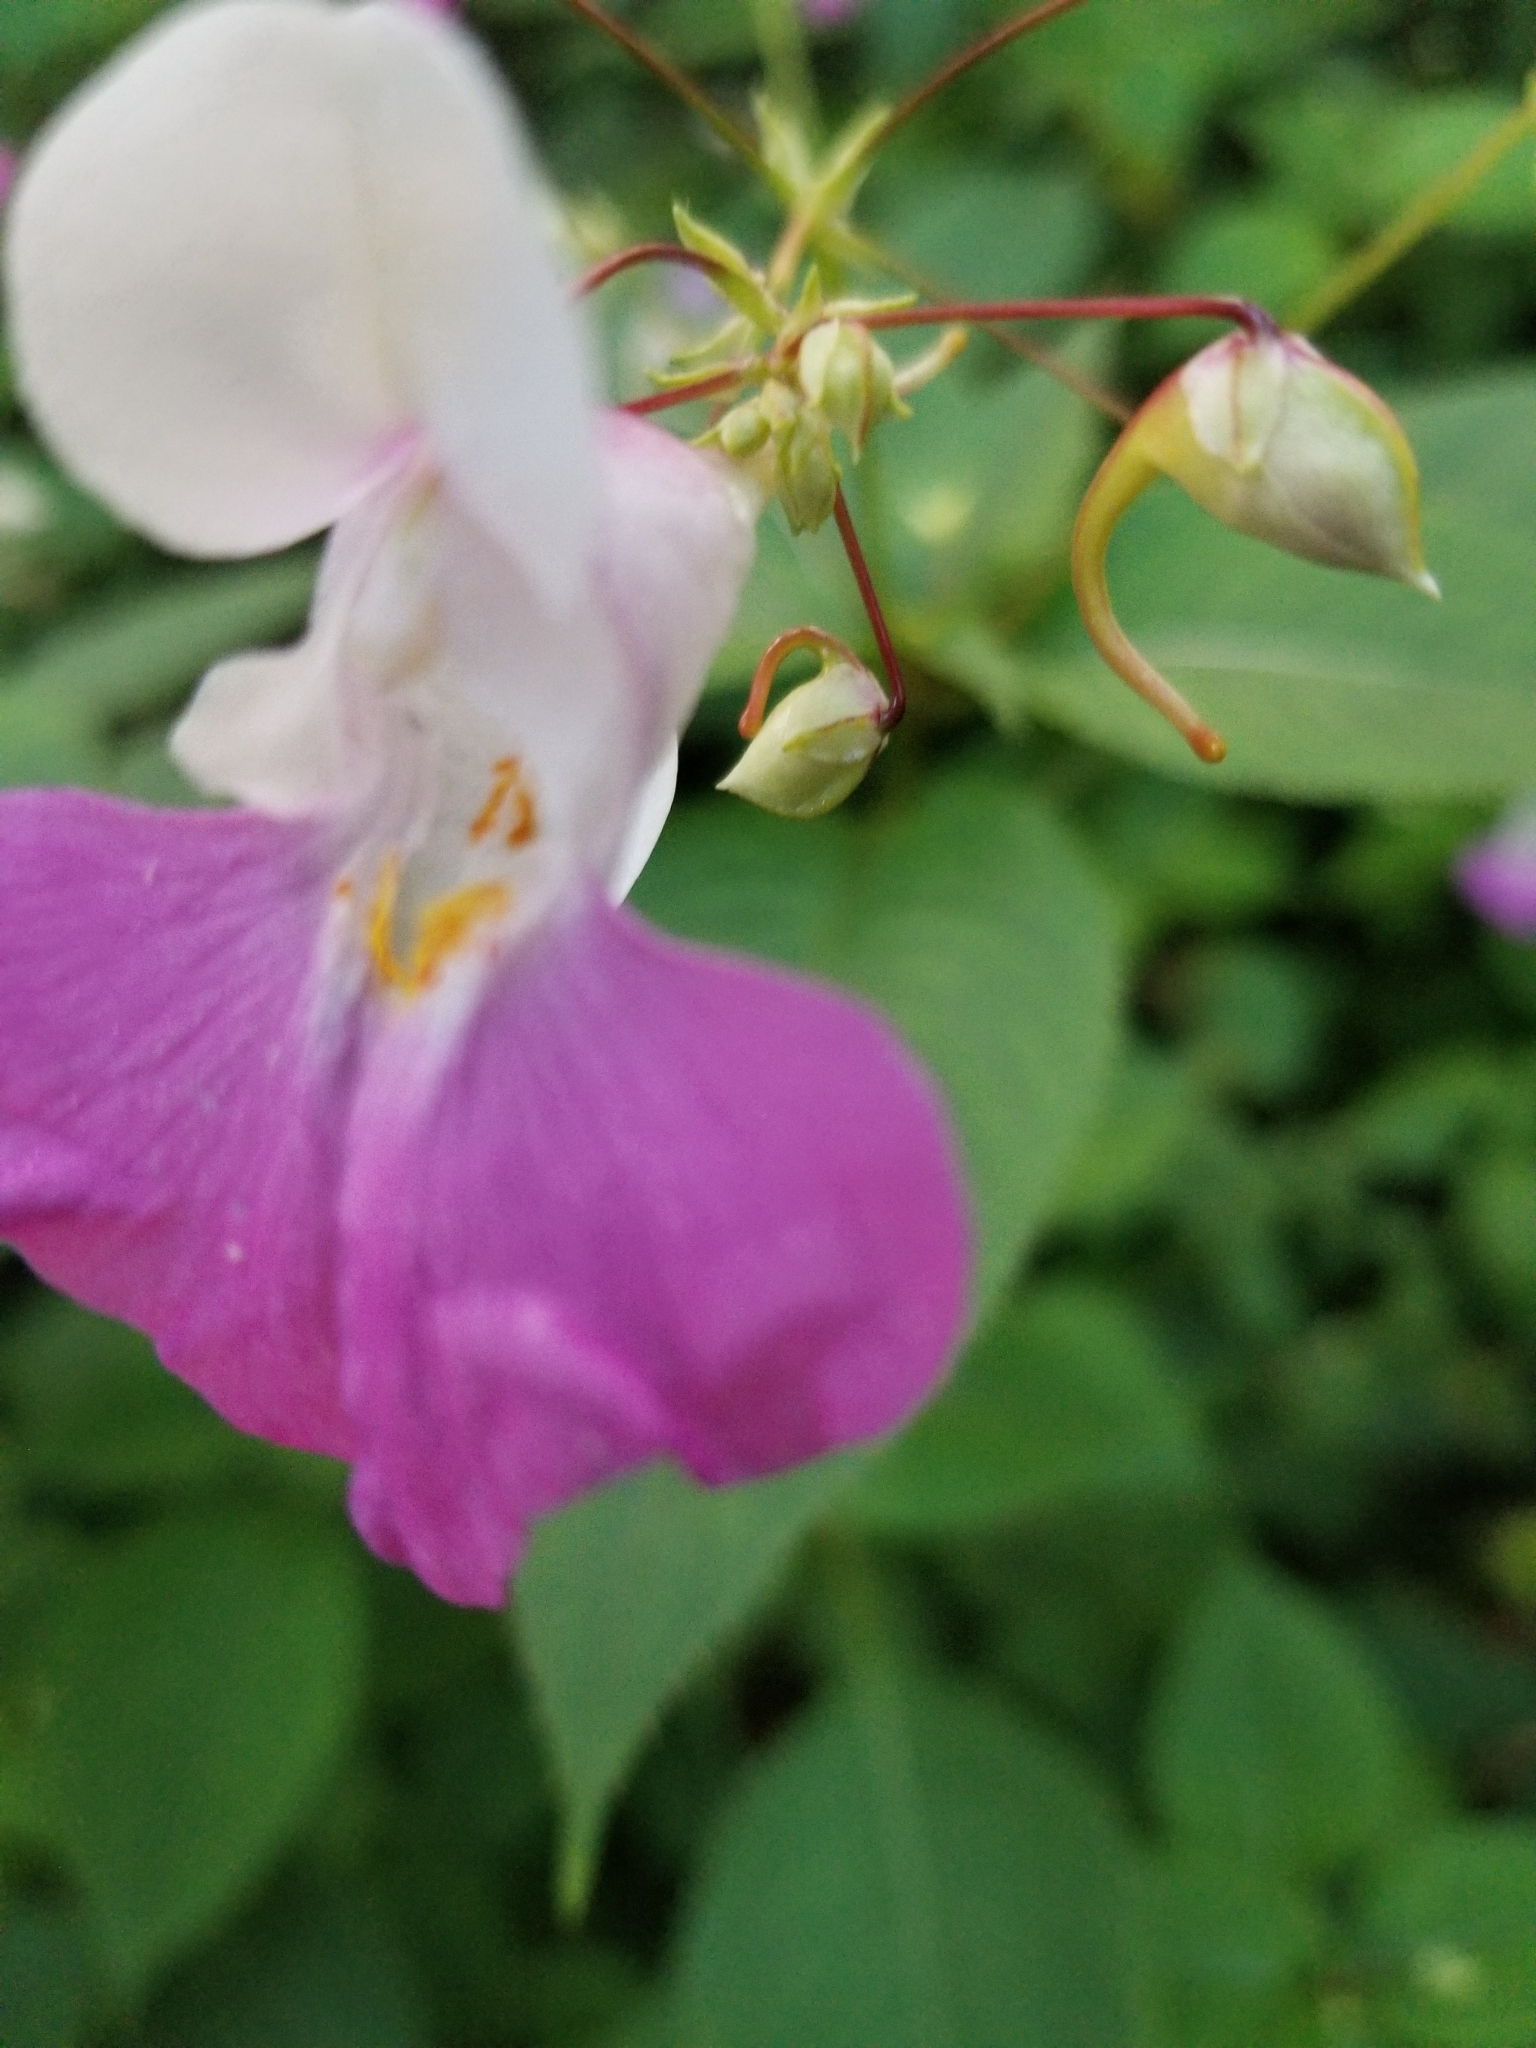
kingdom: Plantae
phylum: Tracheophyta
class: Magnoliopsida
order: Ericales
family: Balsaminaceae
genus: Impatiens
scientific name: Impatiens balfourii
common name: Balfour's touch-me-not
